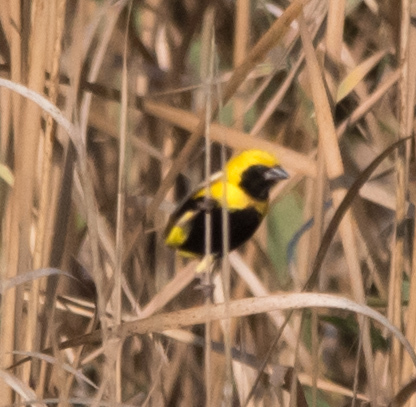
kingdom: Animalia
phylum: Chordata
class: Aves
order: Passeriformes
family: Ploceidae
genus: Euplectes
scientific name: Euplectes afer
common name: Yellow-crowned bishop
